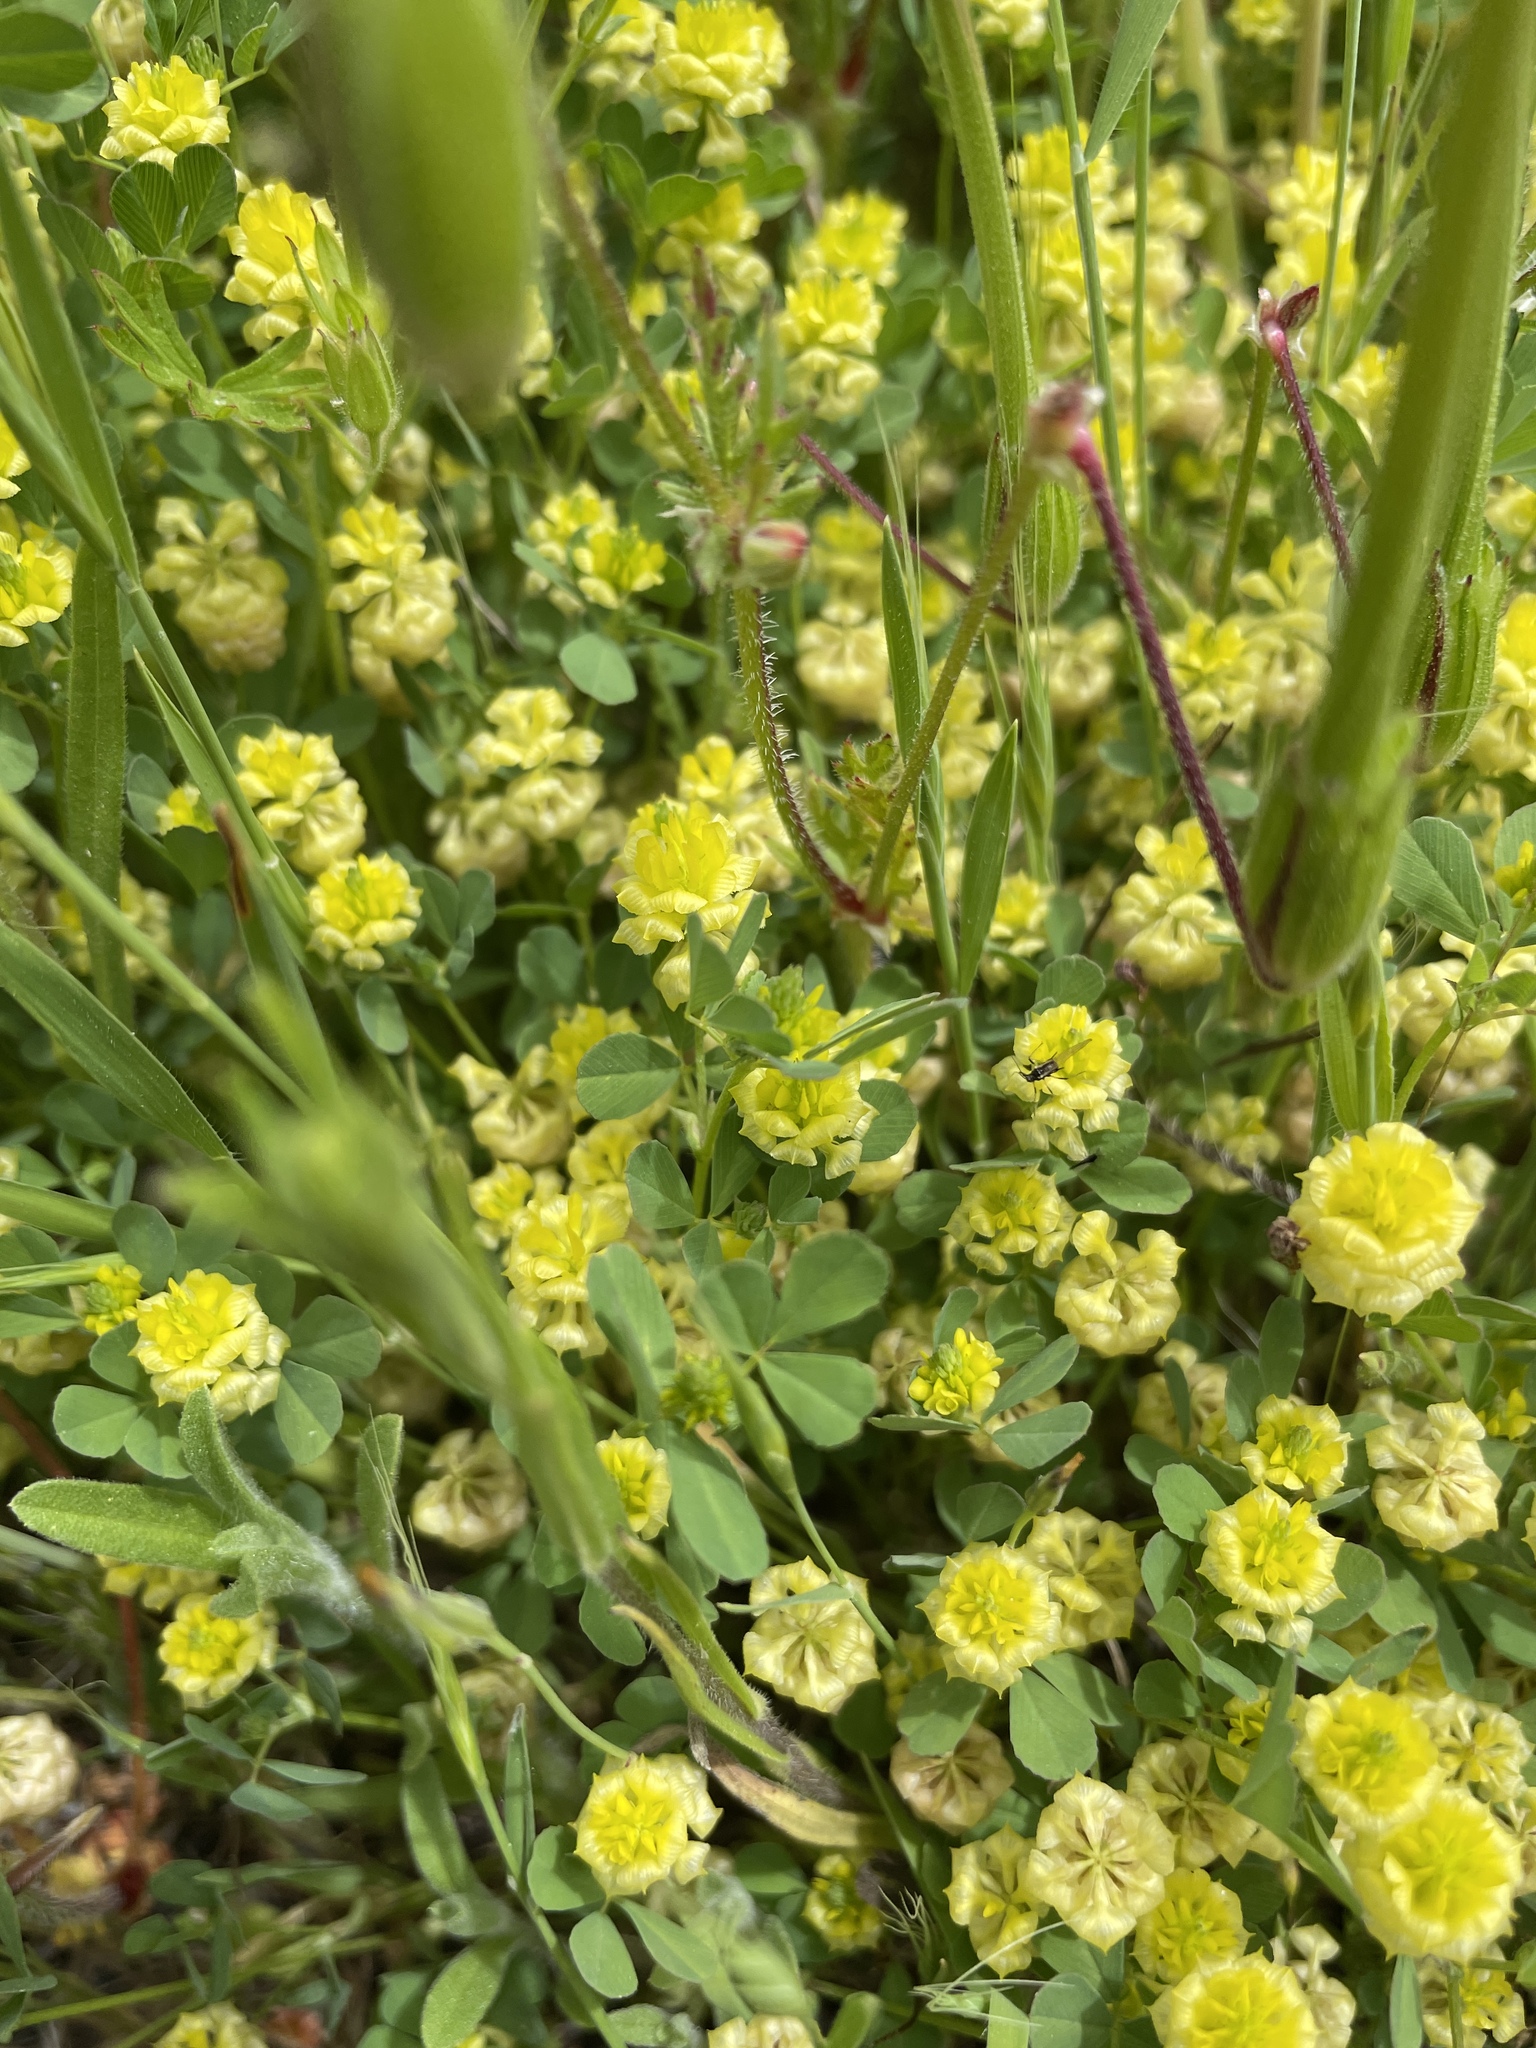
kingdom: Plantae
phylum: Tracheophyta
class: Magnoliopsida
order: Fabales
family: Fabaceae
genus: Trifolium
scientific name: Trifolium campestre
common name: Field clover
